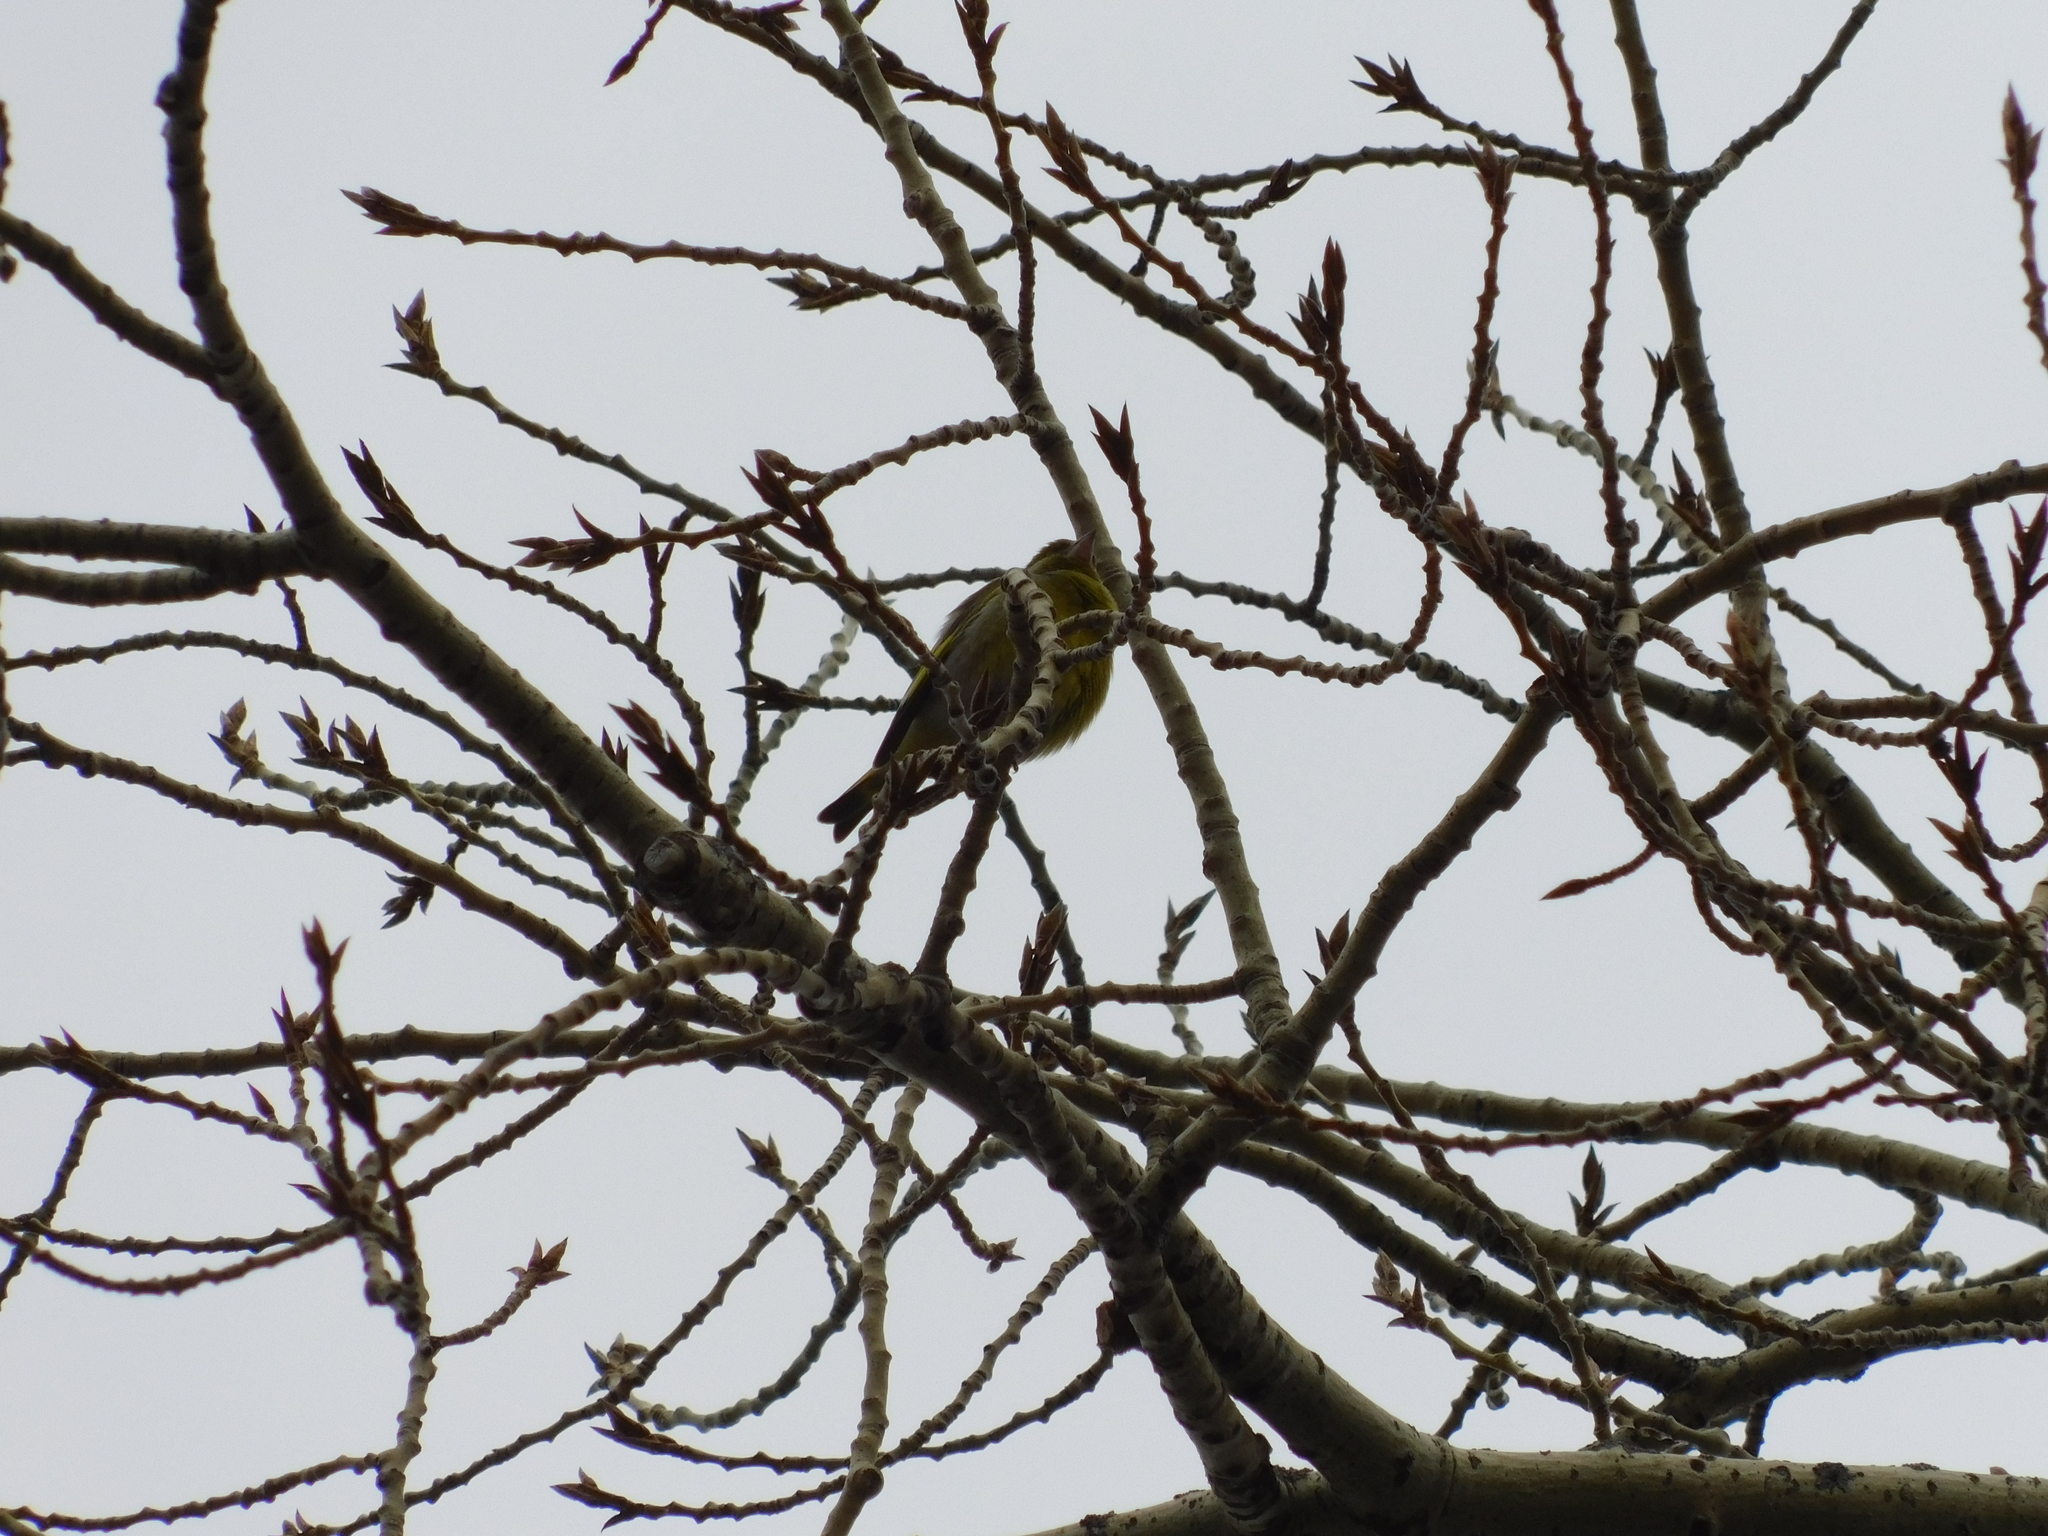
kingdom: Plantae
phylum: Tracheophyta
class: Liliopsida
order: Poales
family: Poaceae
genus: Chloris
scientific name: Chloris chloris
